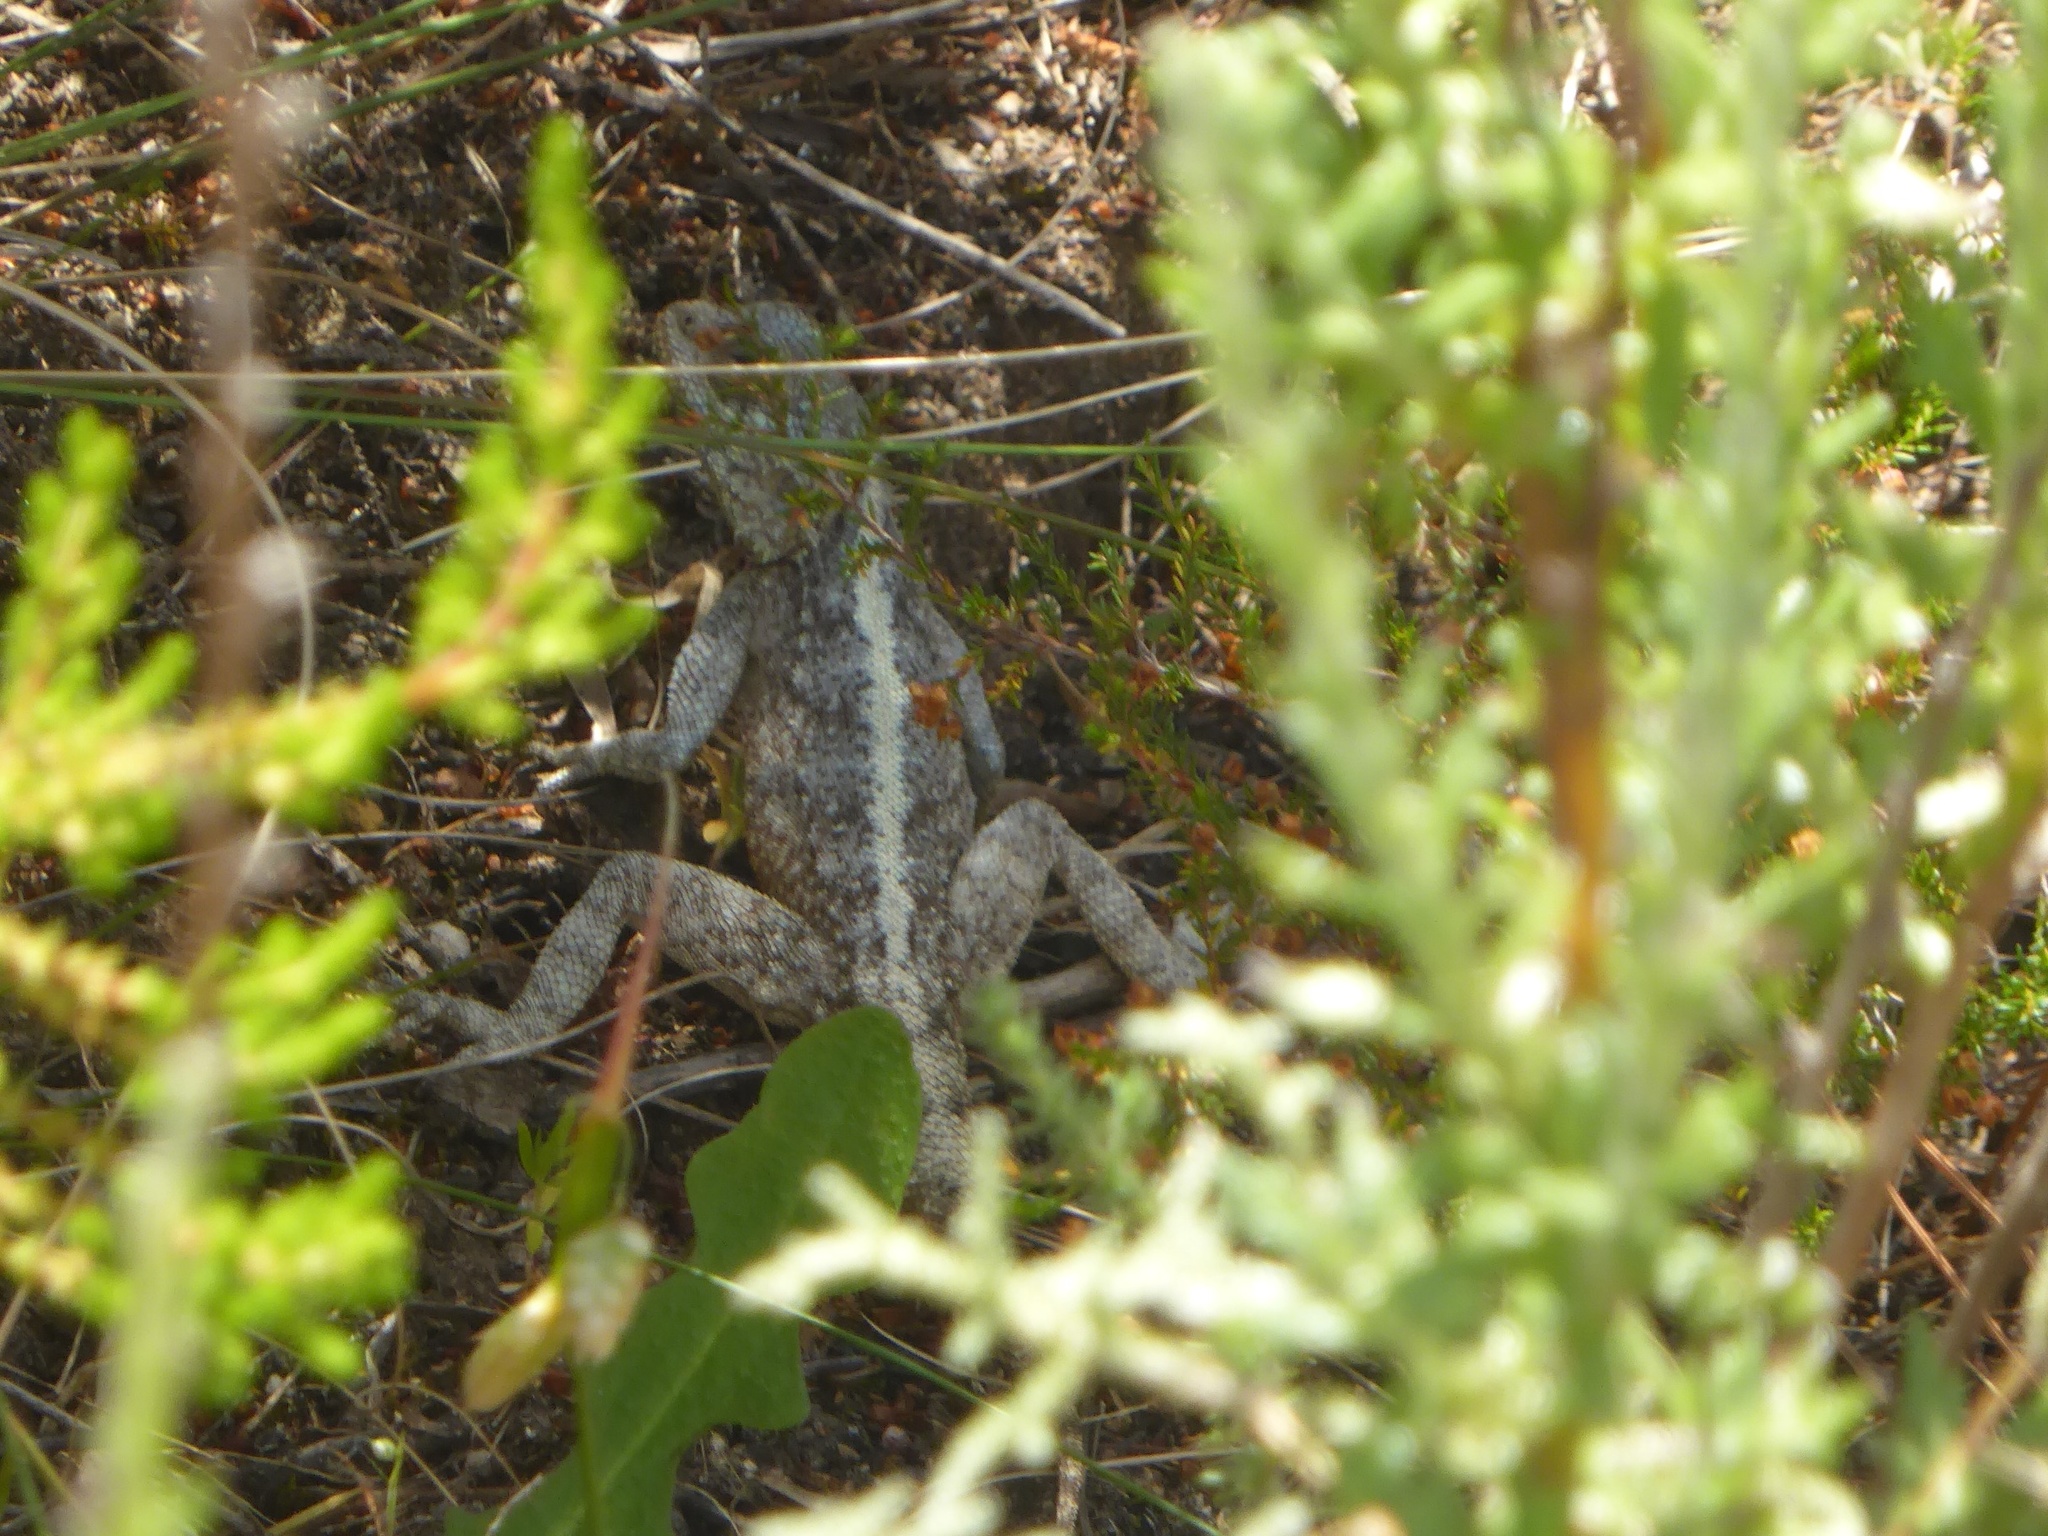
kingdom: Animalia
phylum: Chordata
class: Squamata
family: Agamidae
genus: Agama
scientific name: Agama atra
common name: Southern african rock agama
